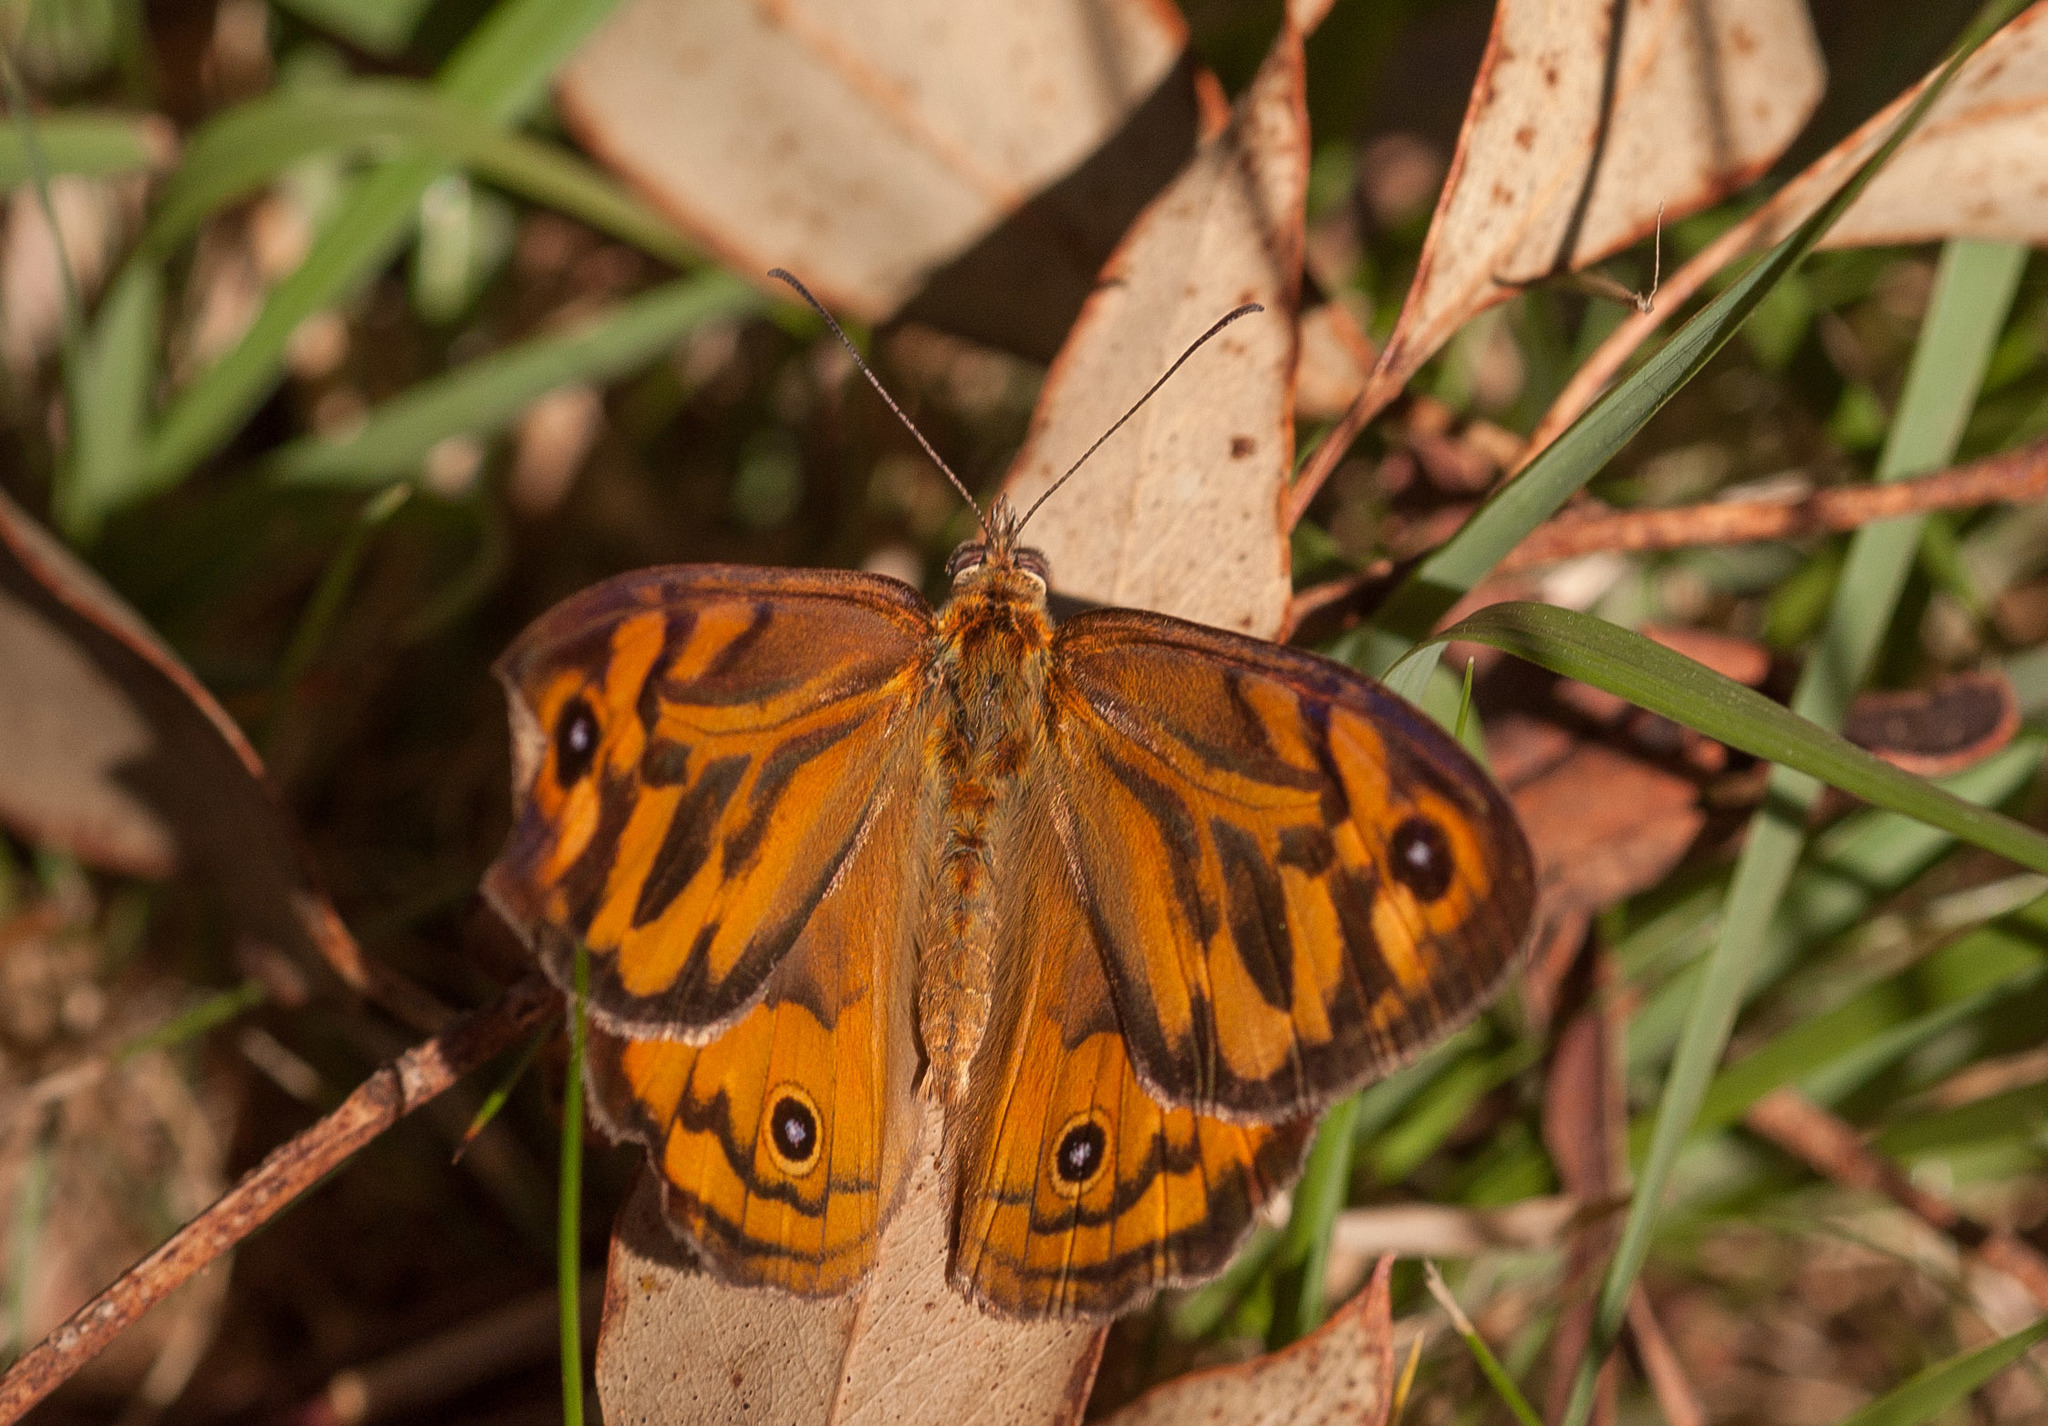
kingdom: Animalia
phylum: Arthropoda
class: Insecta
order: Lepidoptera
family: Nymphalidae
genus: Heteronympha
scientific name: Heteronympha merope
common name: Common brown
